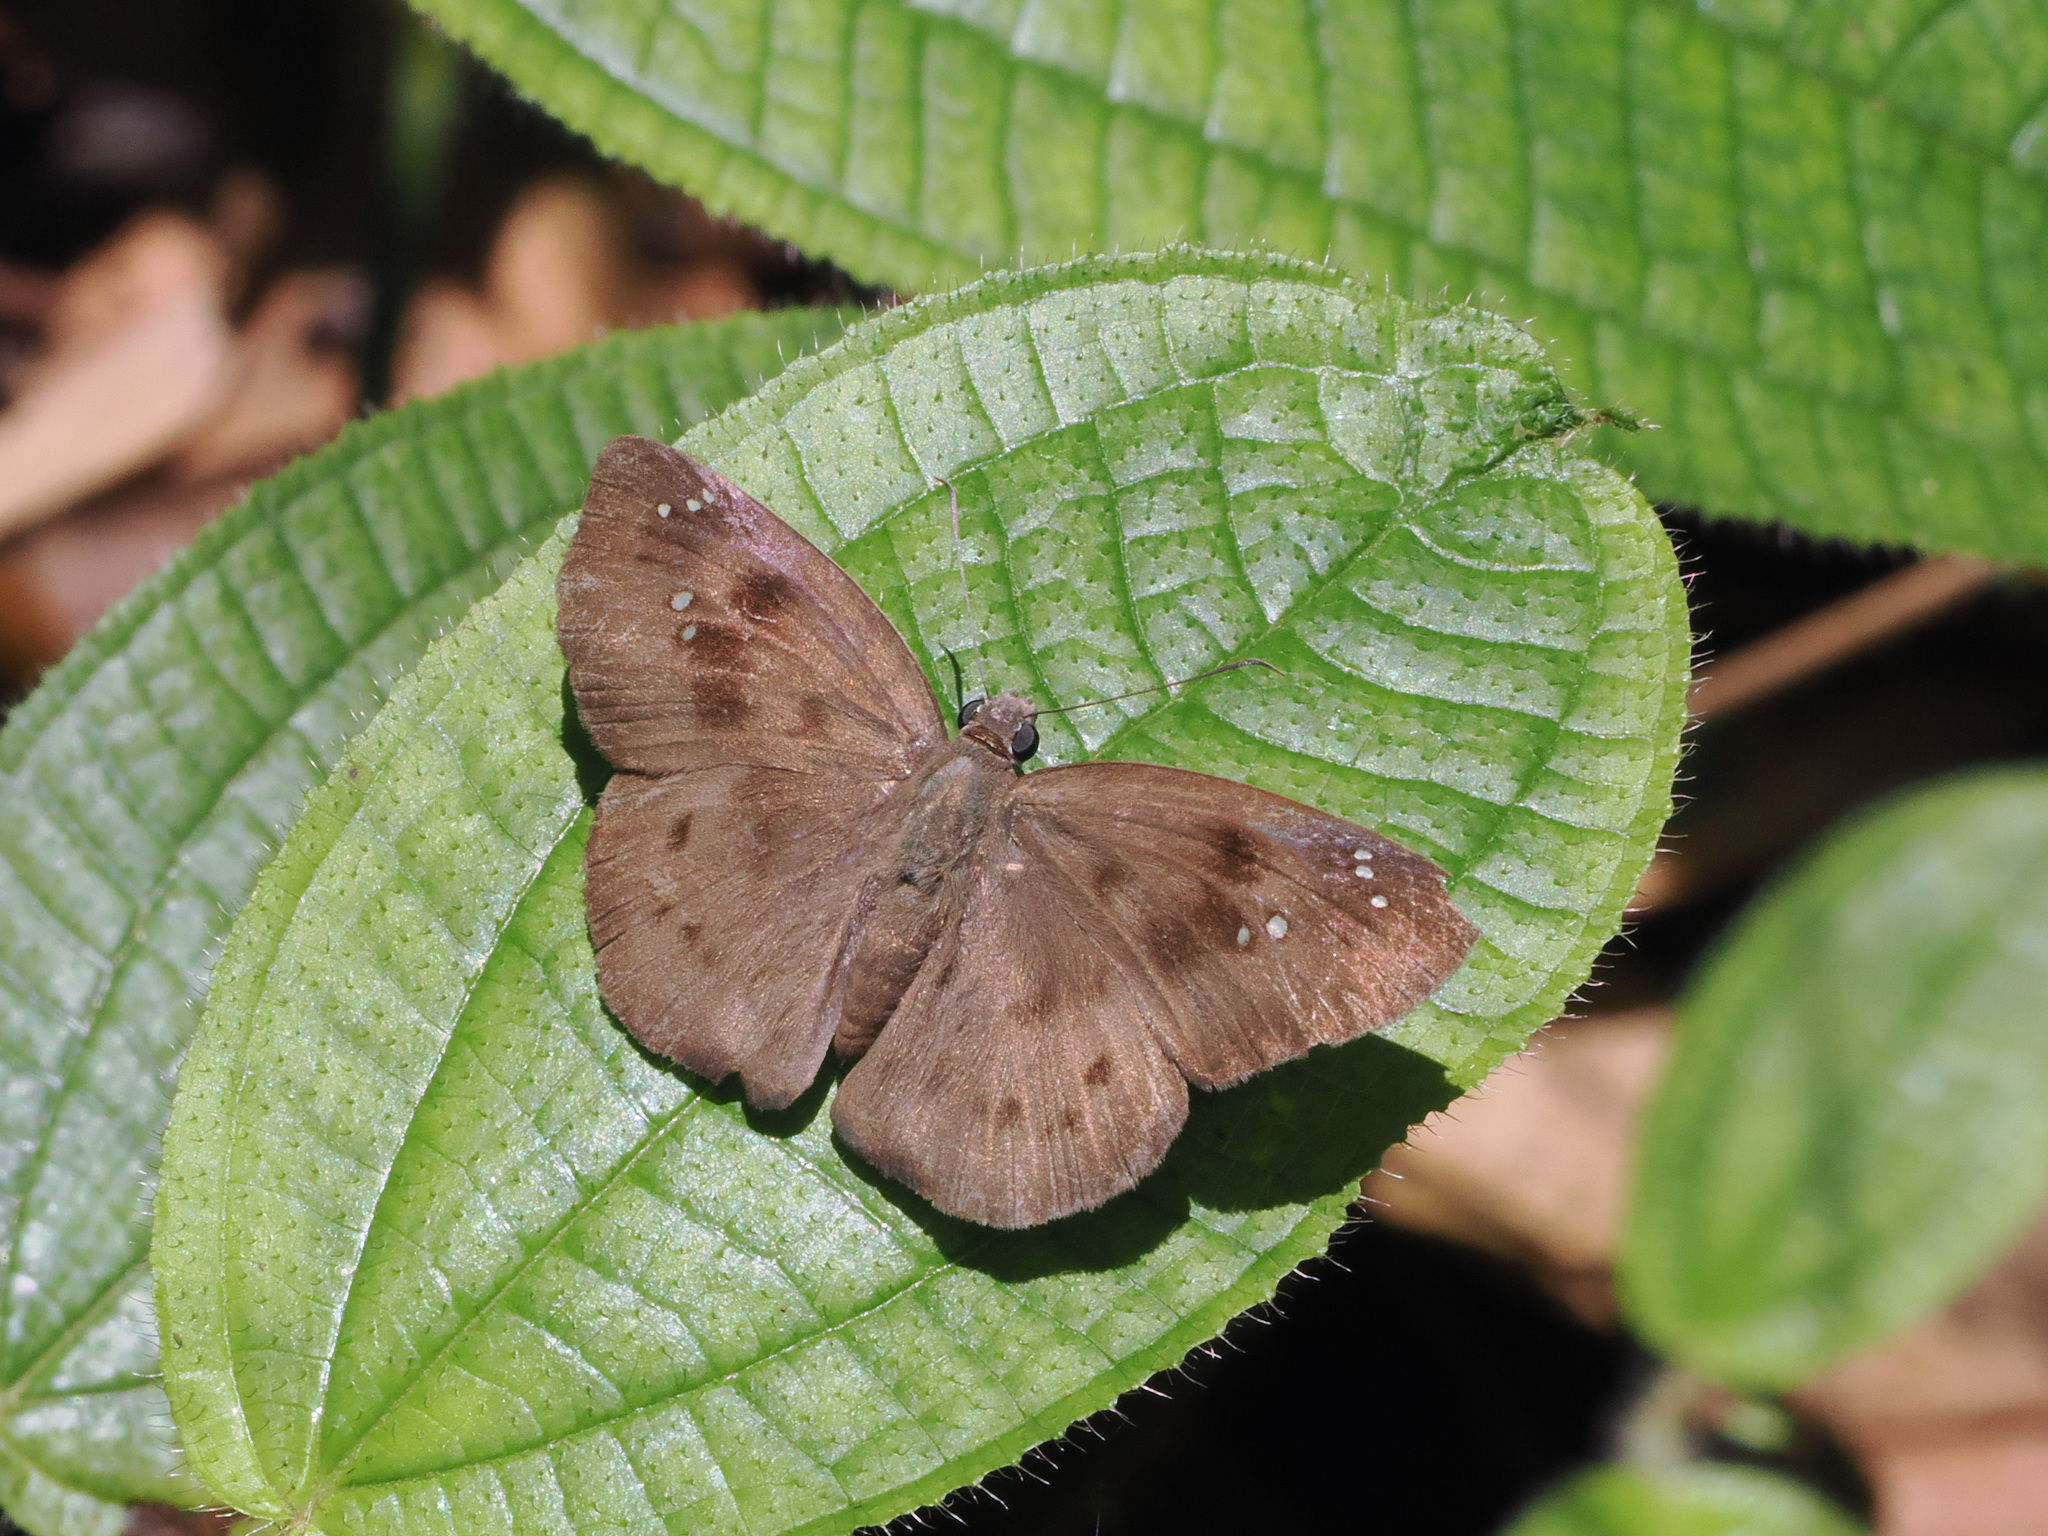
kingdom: Animalia
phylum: Arthropoda
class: Insecta
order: Lepidoptera
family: Hesperiidae
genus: Tagiades
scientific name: Tagiades japetus
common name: Pied flat
